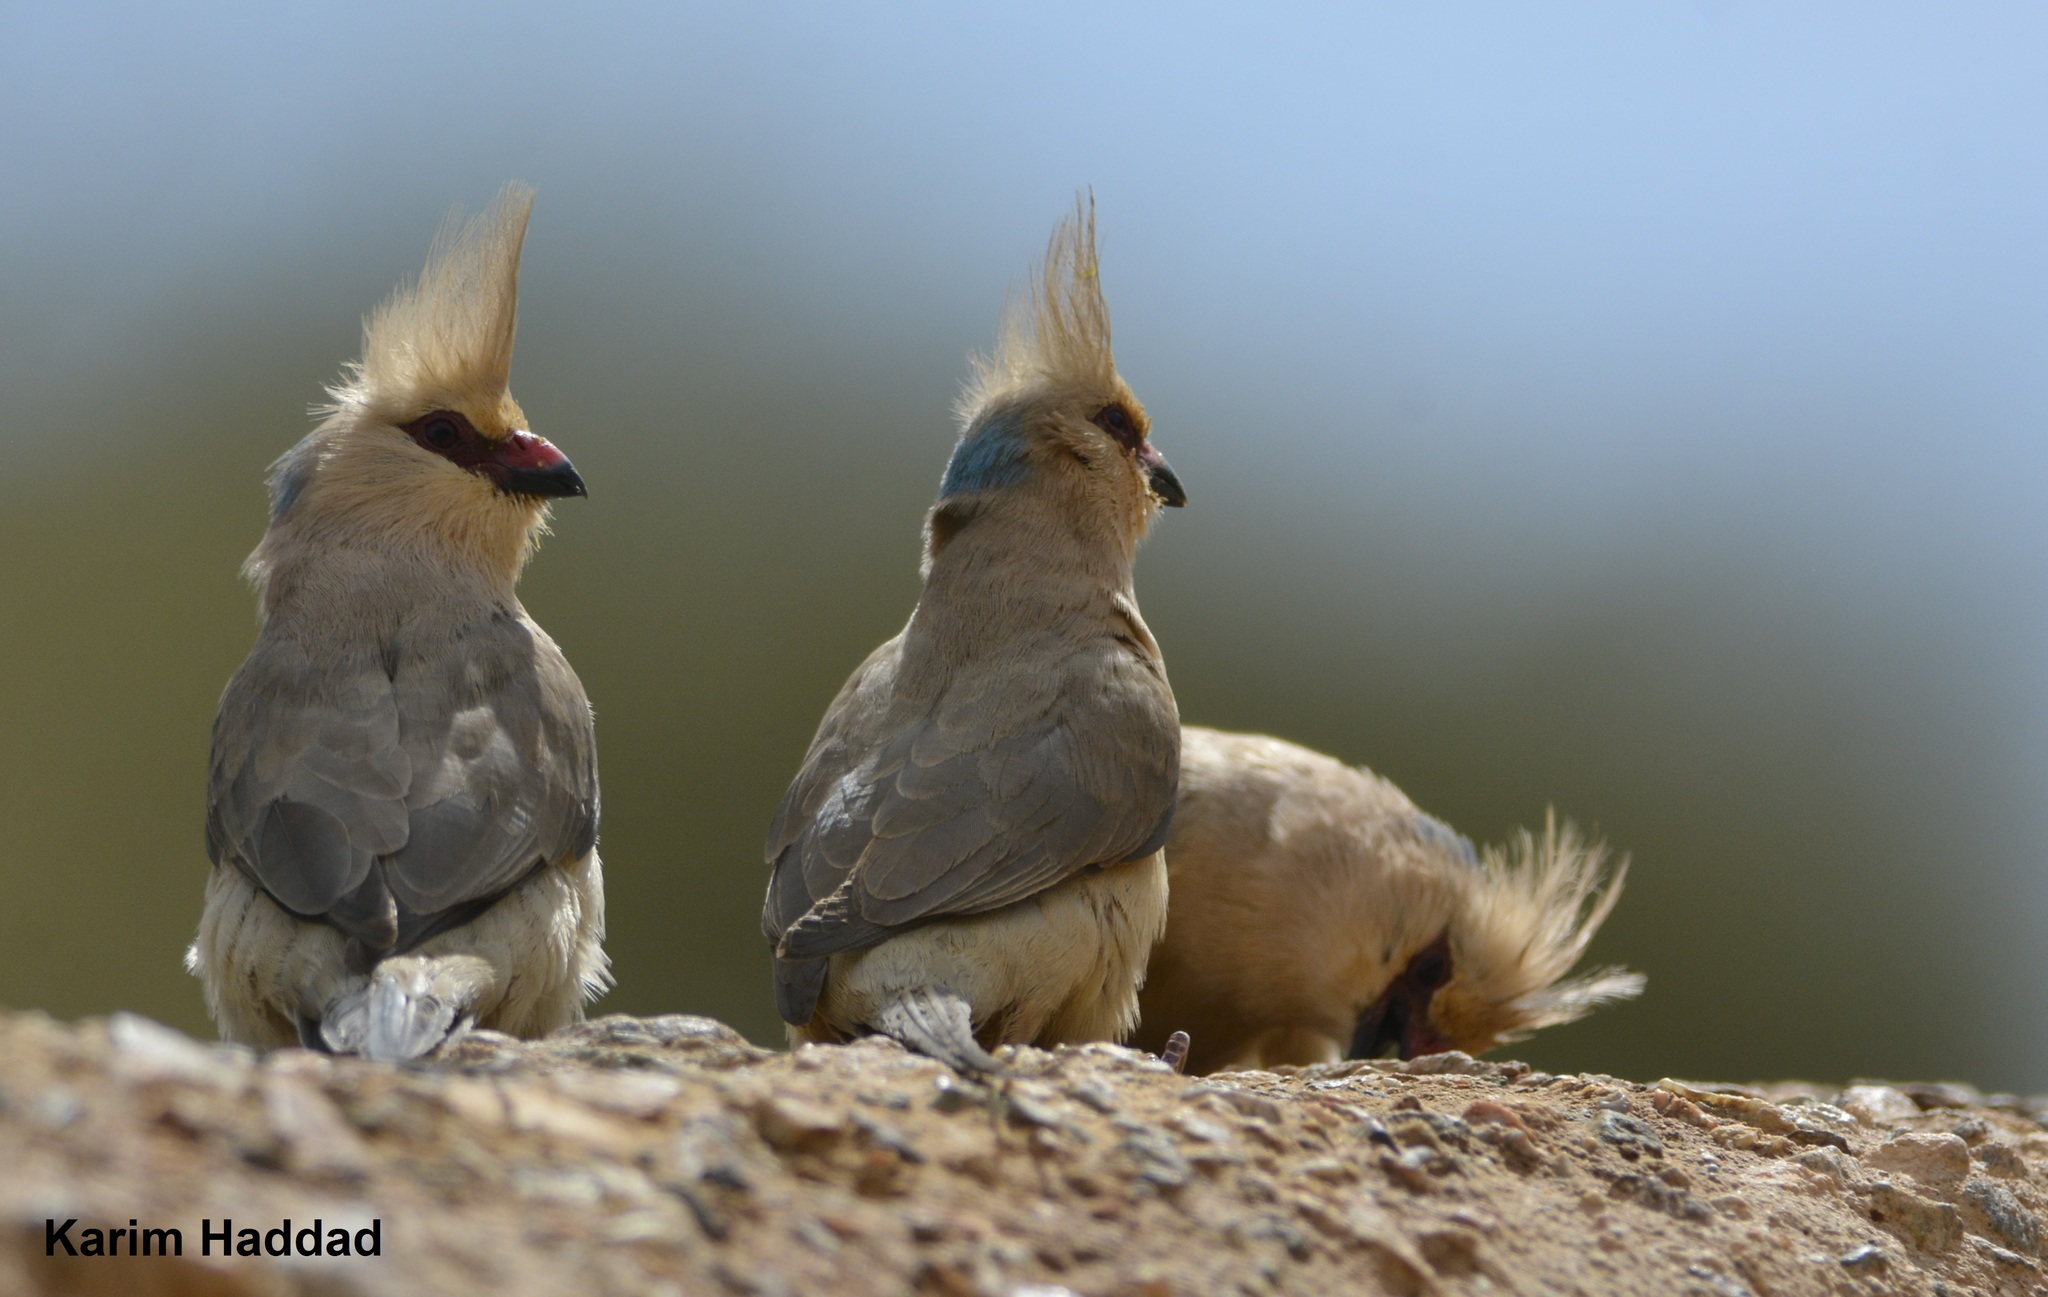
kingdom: Animalia
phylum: Chordata
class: Aves
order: Coliiformes
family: Coliidae
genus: Urocolius
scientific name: Urocolius macrourus
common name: Blue-naped mousebird
